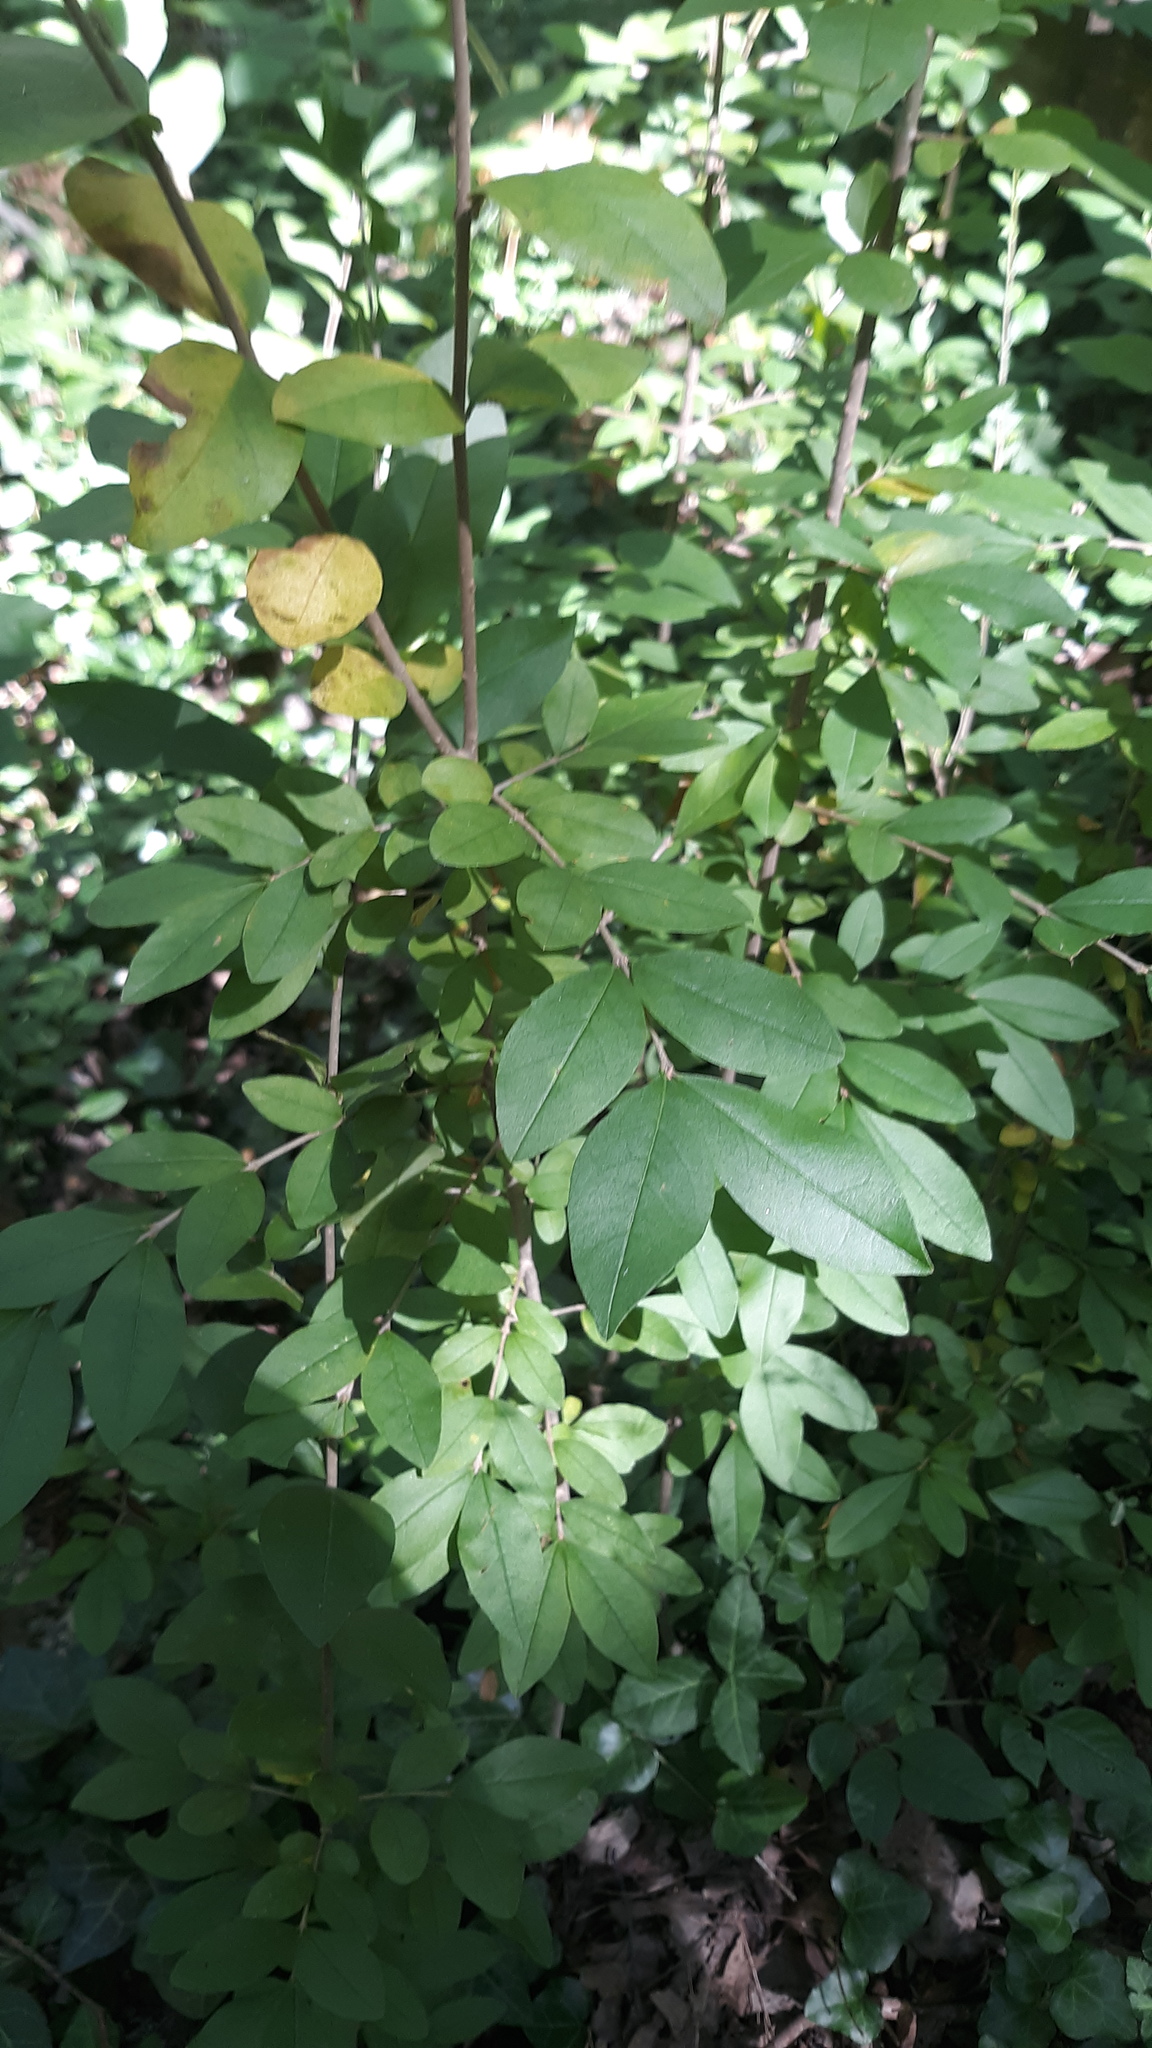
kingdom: Plantae
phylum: Tracheophyta
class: Magnoliopsida
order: Lamiales
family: Oleaceae
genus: Ligustrum
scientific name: Ligustrum obtusifolium
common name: Border privet
